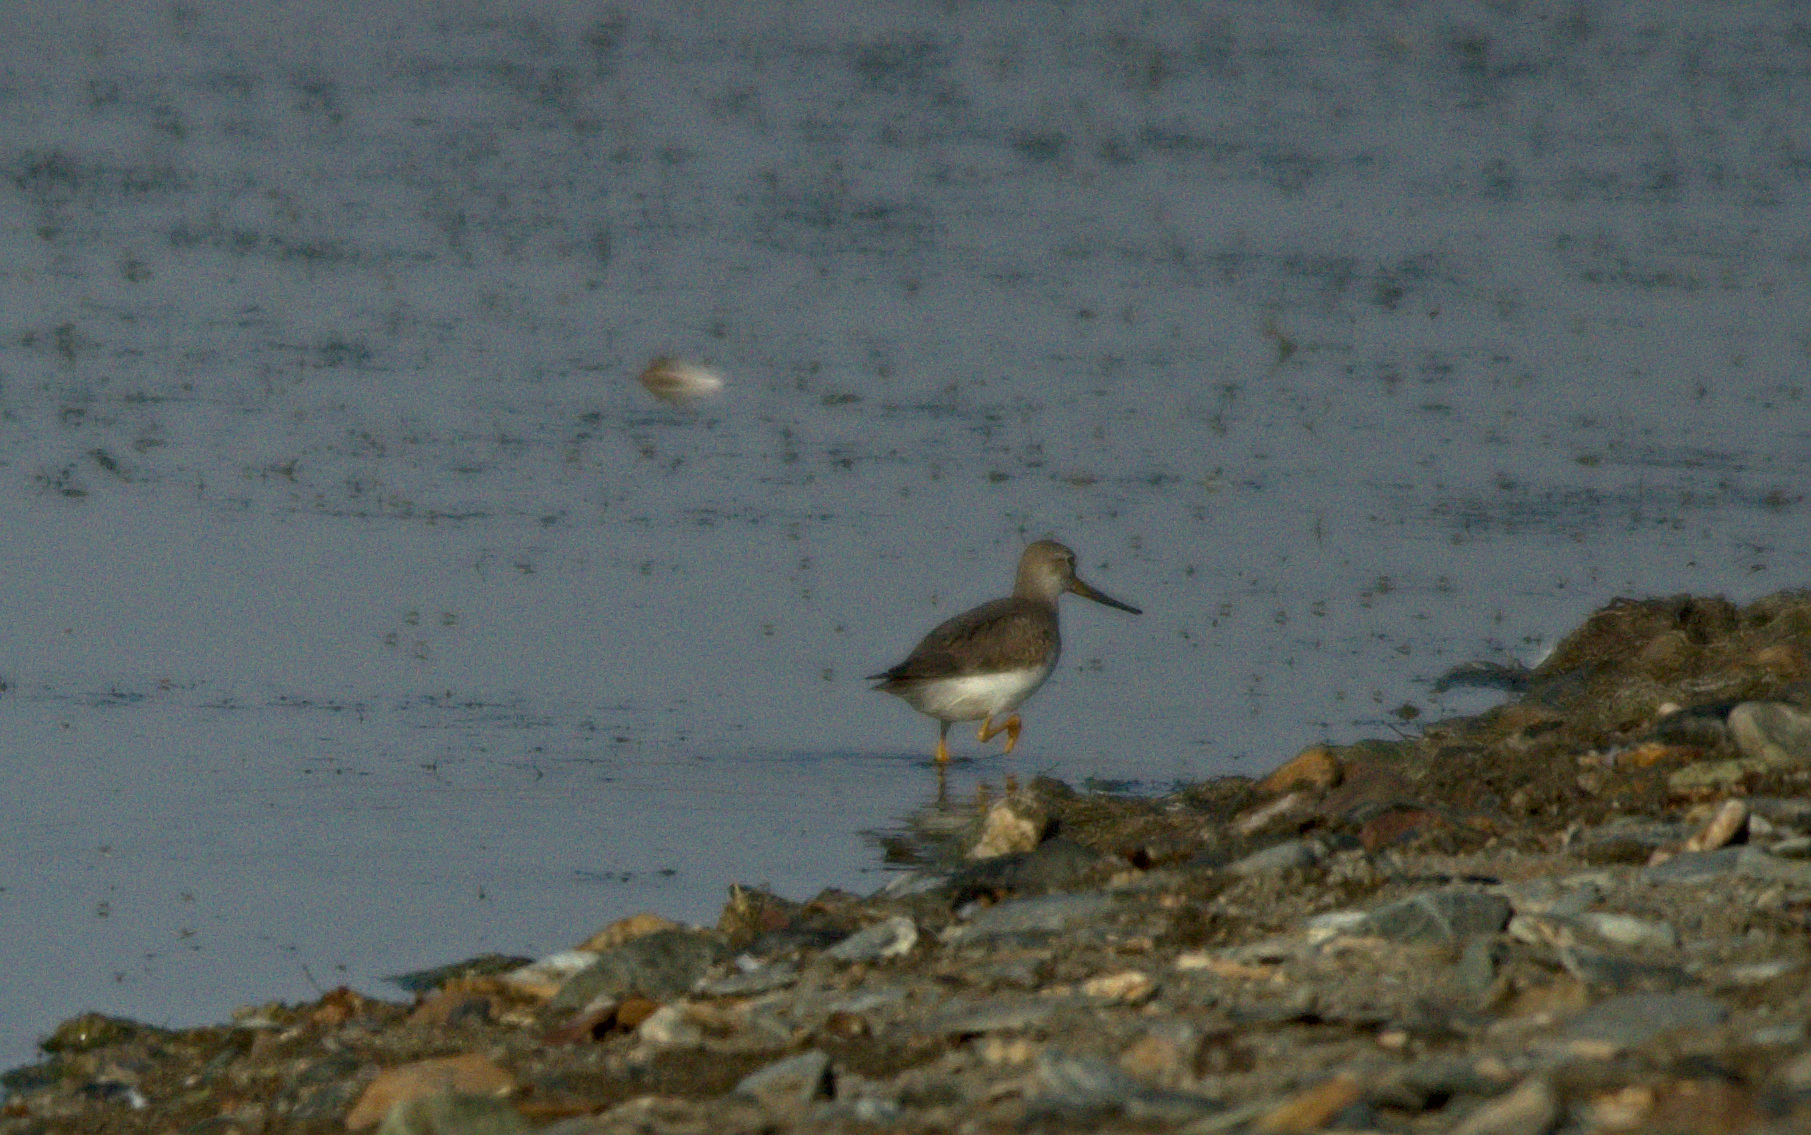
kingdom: Animalia
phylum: Chordata
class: Aves
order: Charadriiformes
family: Scolopacidae
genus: Xenus
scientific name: Xenus cinereus
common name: Terek sandpiper
